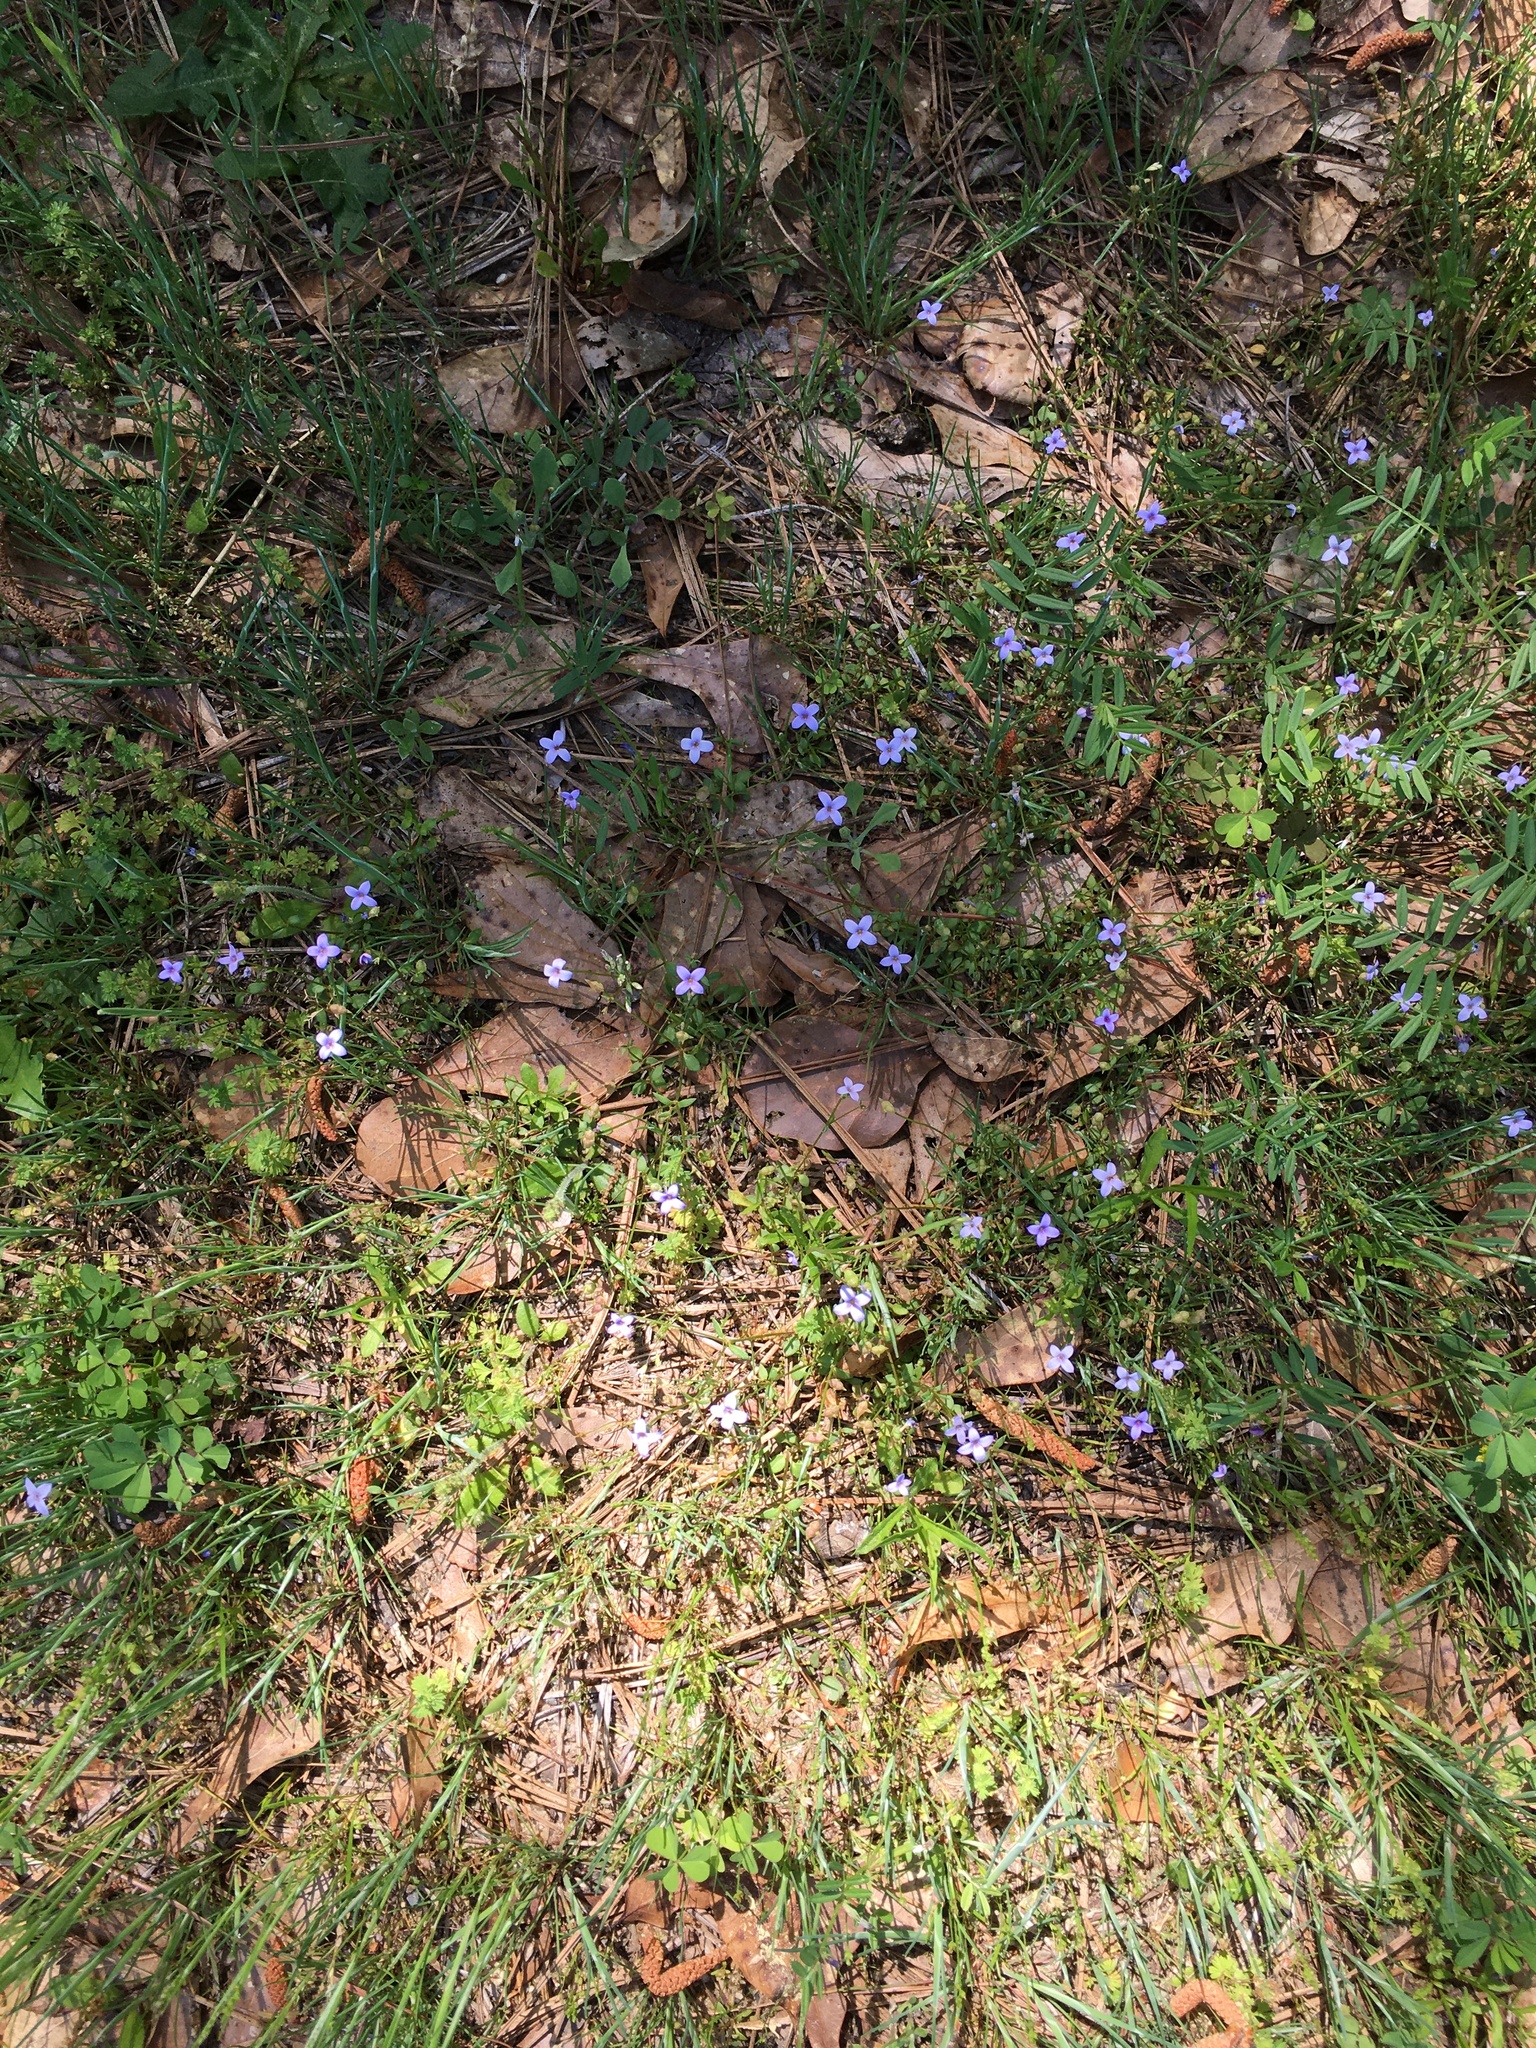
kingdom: Plantae
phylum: Tracheophyta
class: Magnoliopsida
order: Gentianales
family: Rubiaceae
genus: Houstonia
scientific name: Houstonia pusilla
